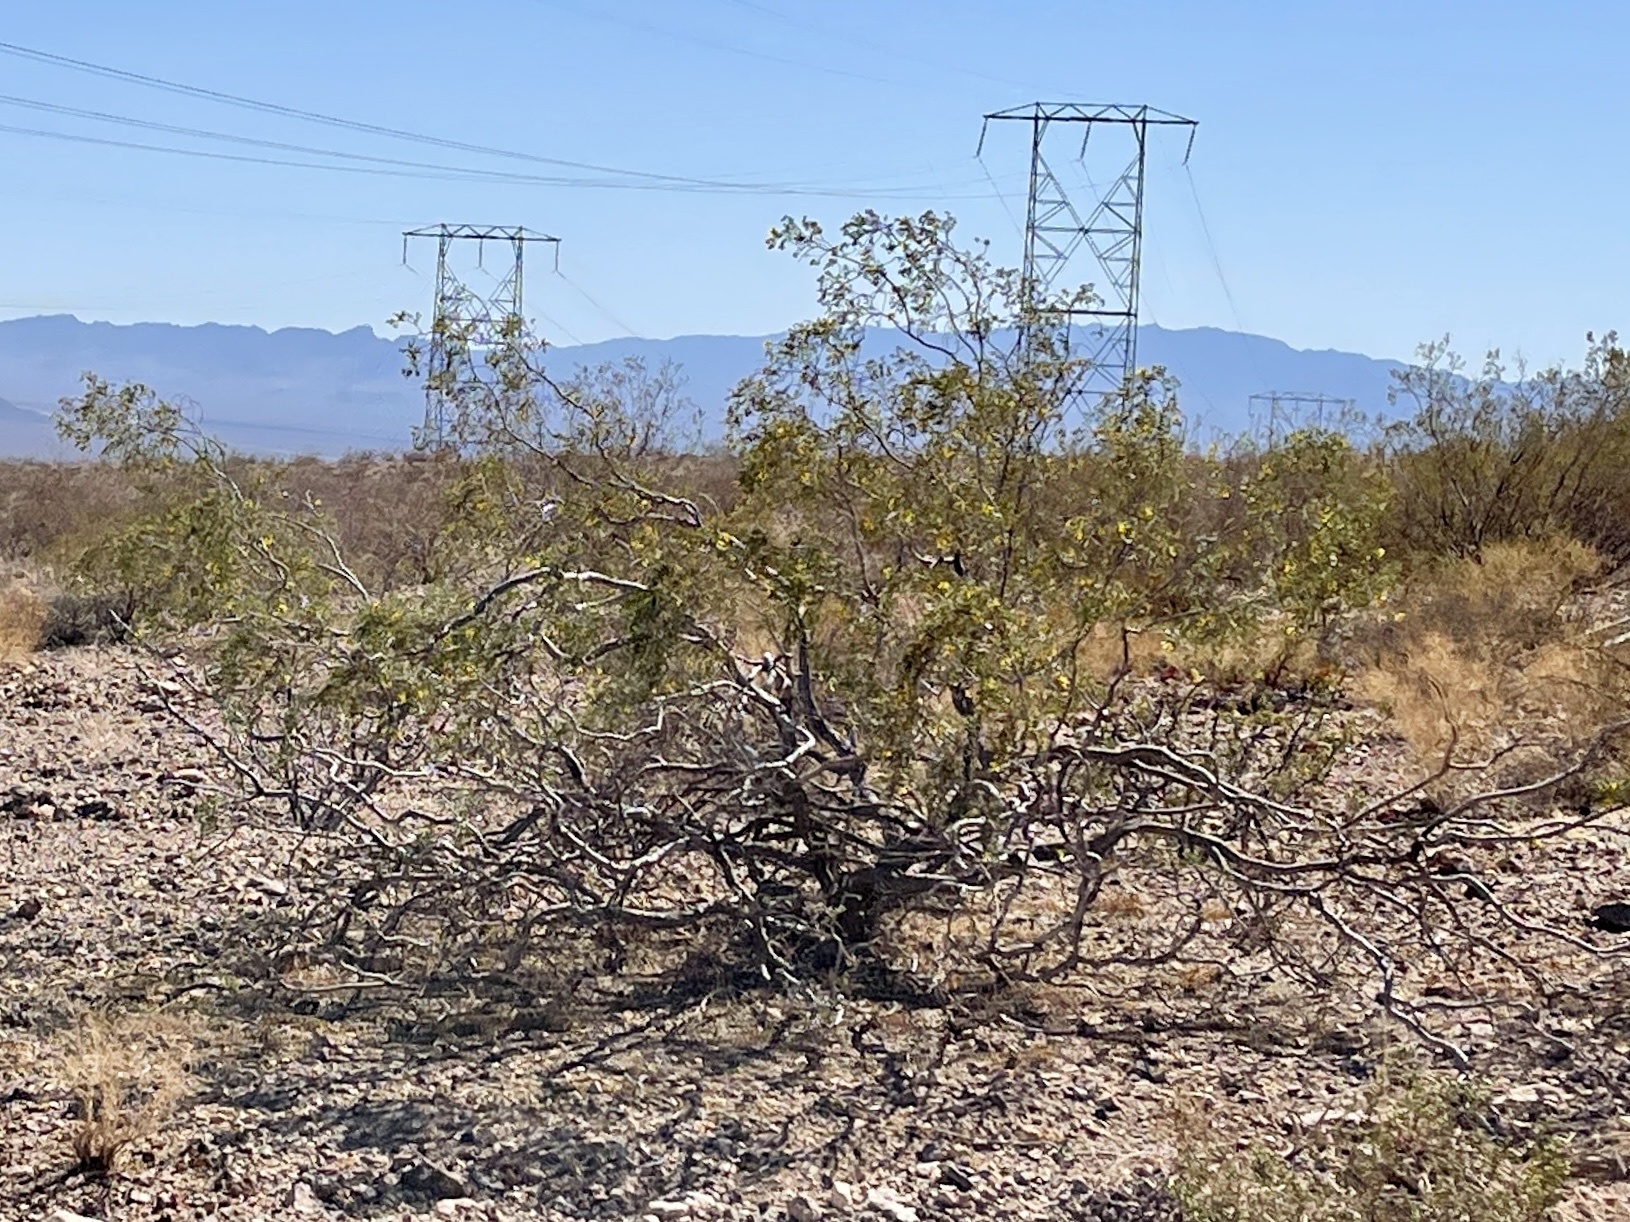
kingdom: Plantae
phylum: Tracheophyta
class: Magnoliopsida
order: Zygophyllales
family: Zygophyllaceae
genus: Larrea
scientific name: Larrea tridentata
